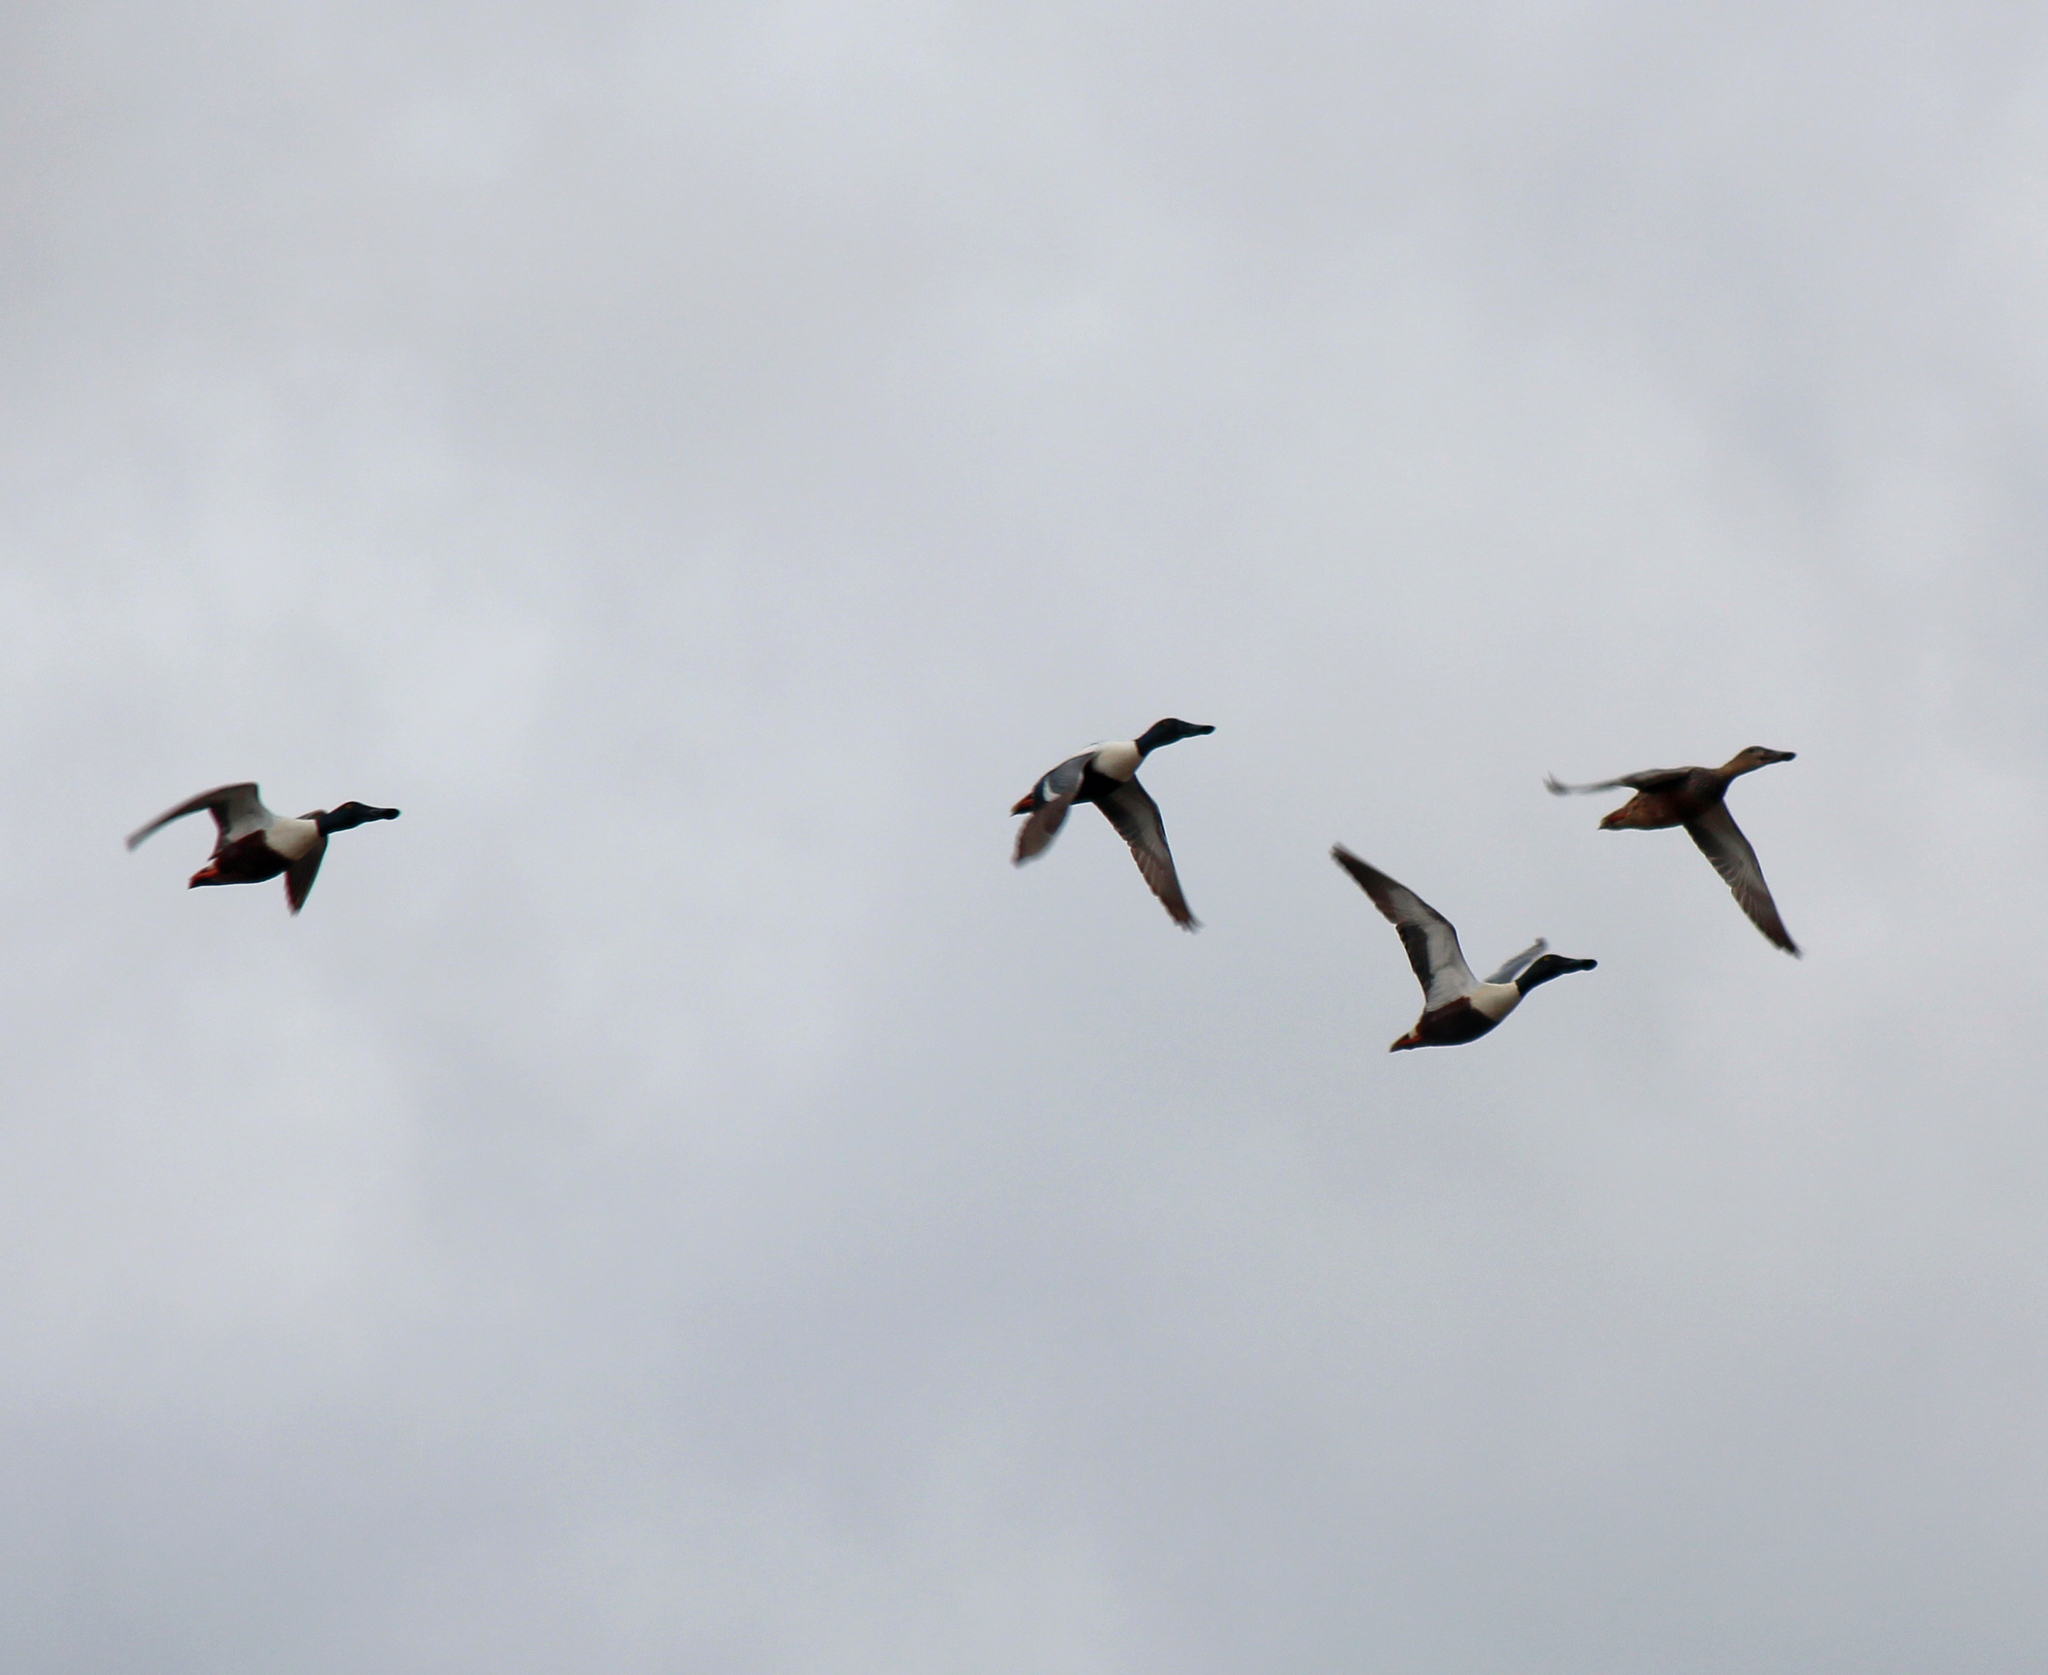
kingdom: Animalia
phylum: Chordata
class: Aves
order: Anseriformes
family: Anatidae
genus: Spatula
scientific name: Spatula clypeata
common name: Northern shoveler
